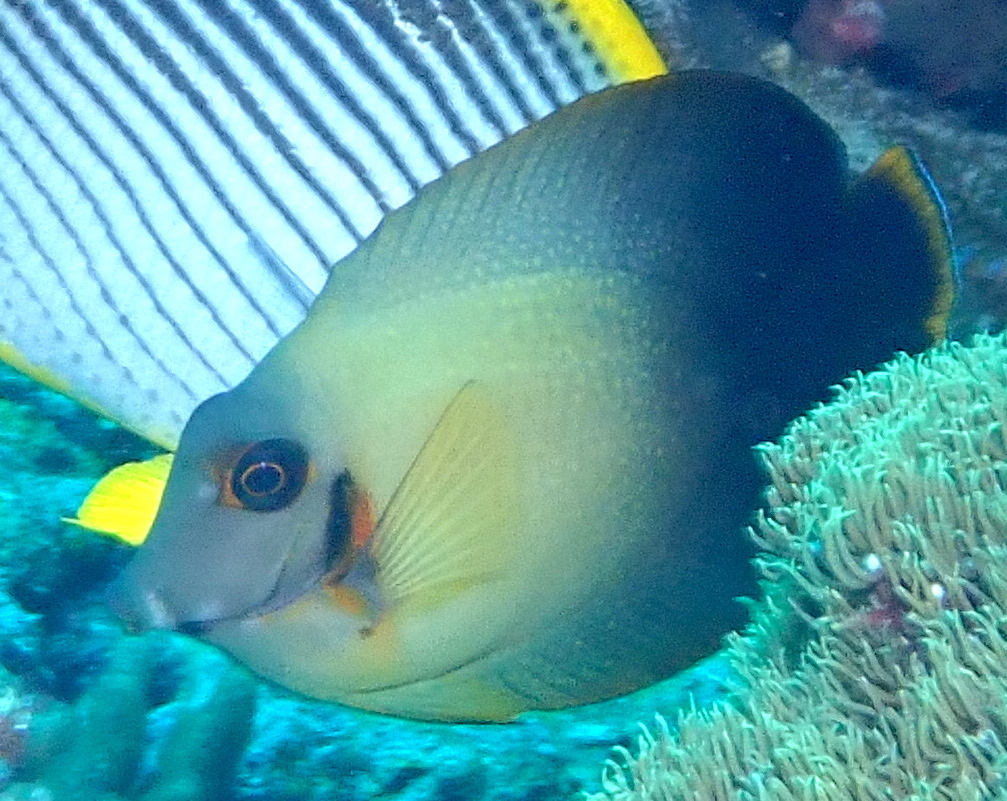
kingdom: Animalia
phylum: Chordata
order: Perciformes
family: Acanthuridae
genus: Acanthurus
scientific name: Acanthurus pyroferus
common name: Chocolate surgeonfish
